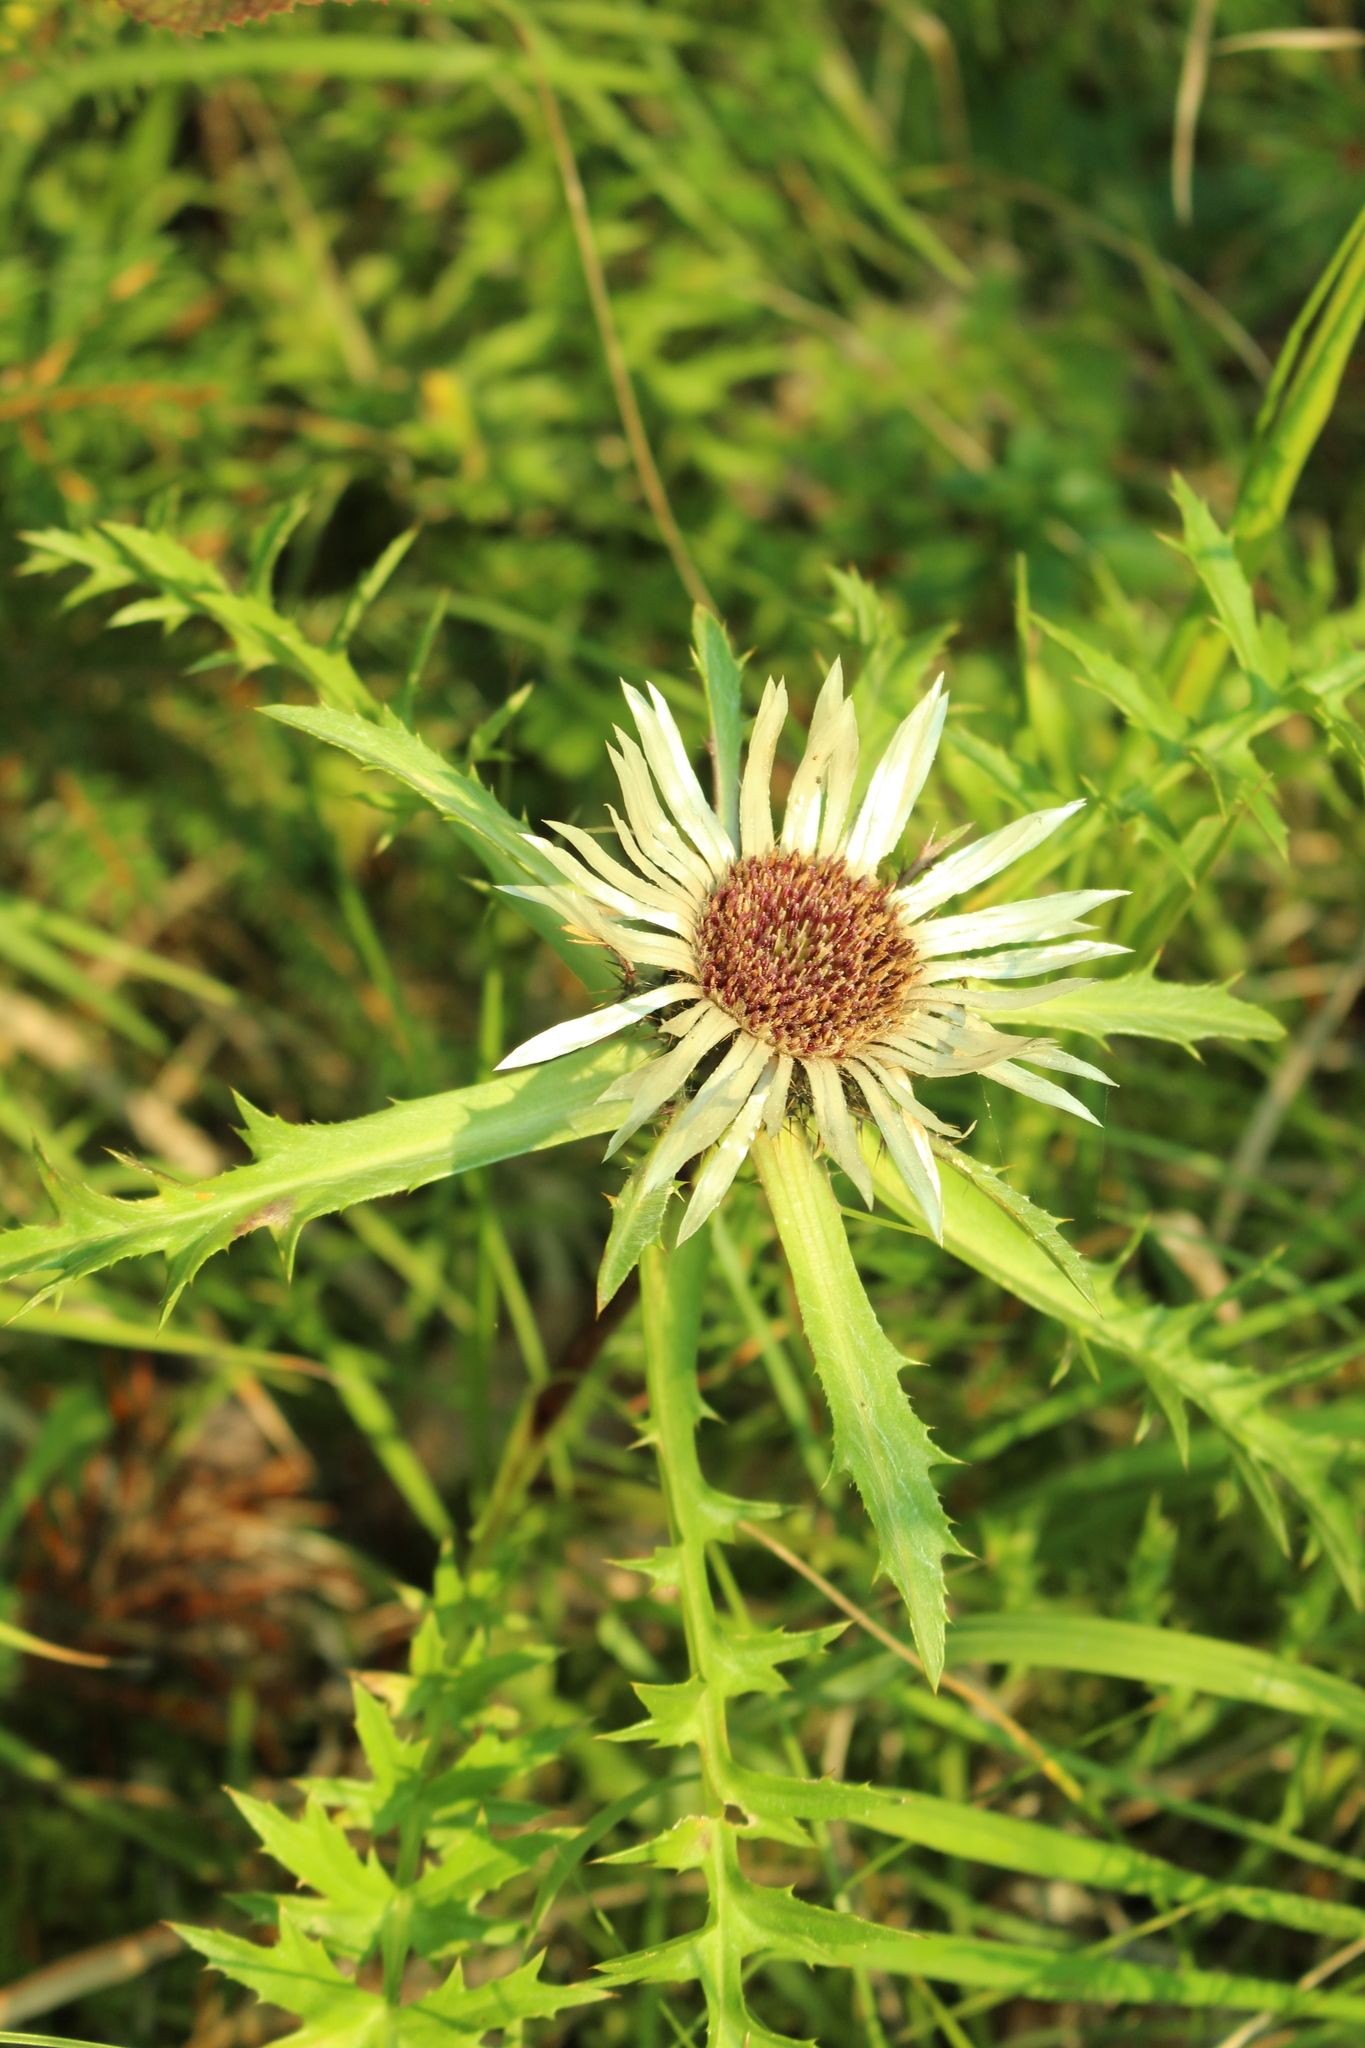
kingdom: Plantae
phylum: Tracheophyta
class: Magnoliopsida
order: Asterales
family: Asteraceae
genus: Carlina
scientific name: Carlina acaulis
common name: Stemless carline thistle
